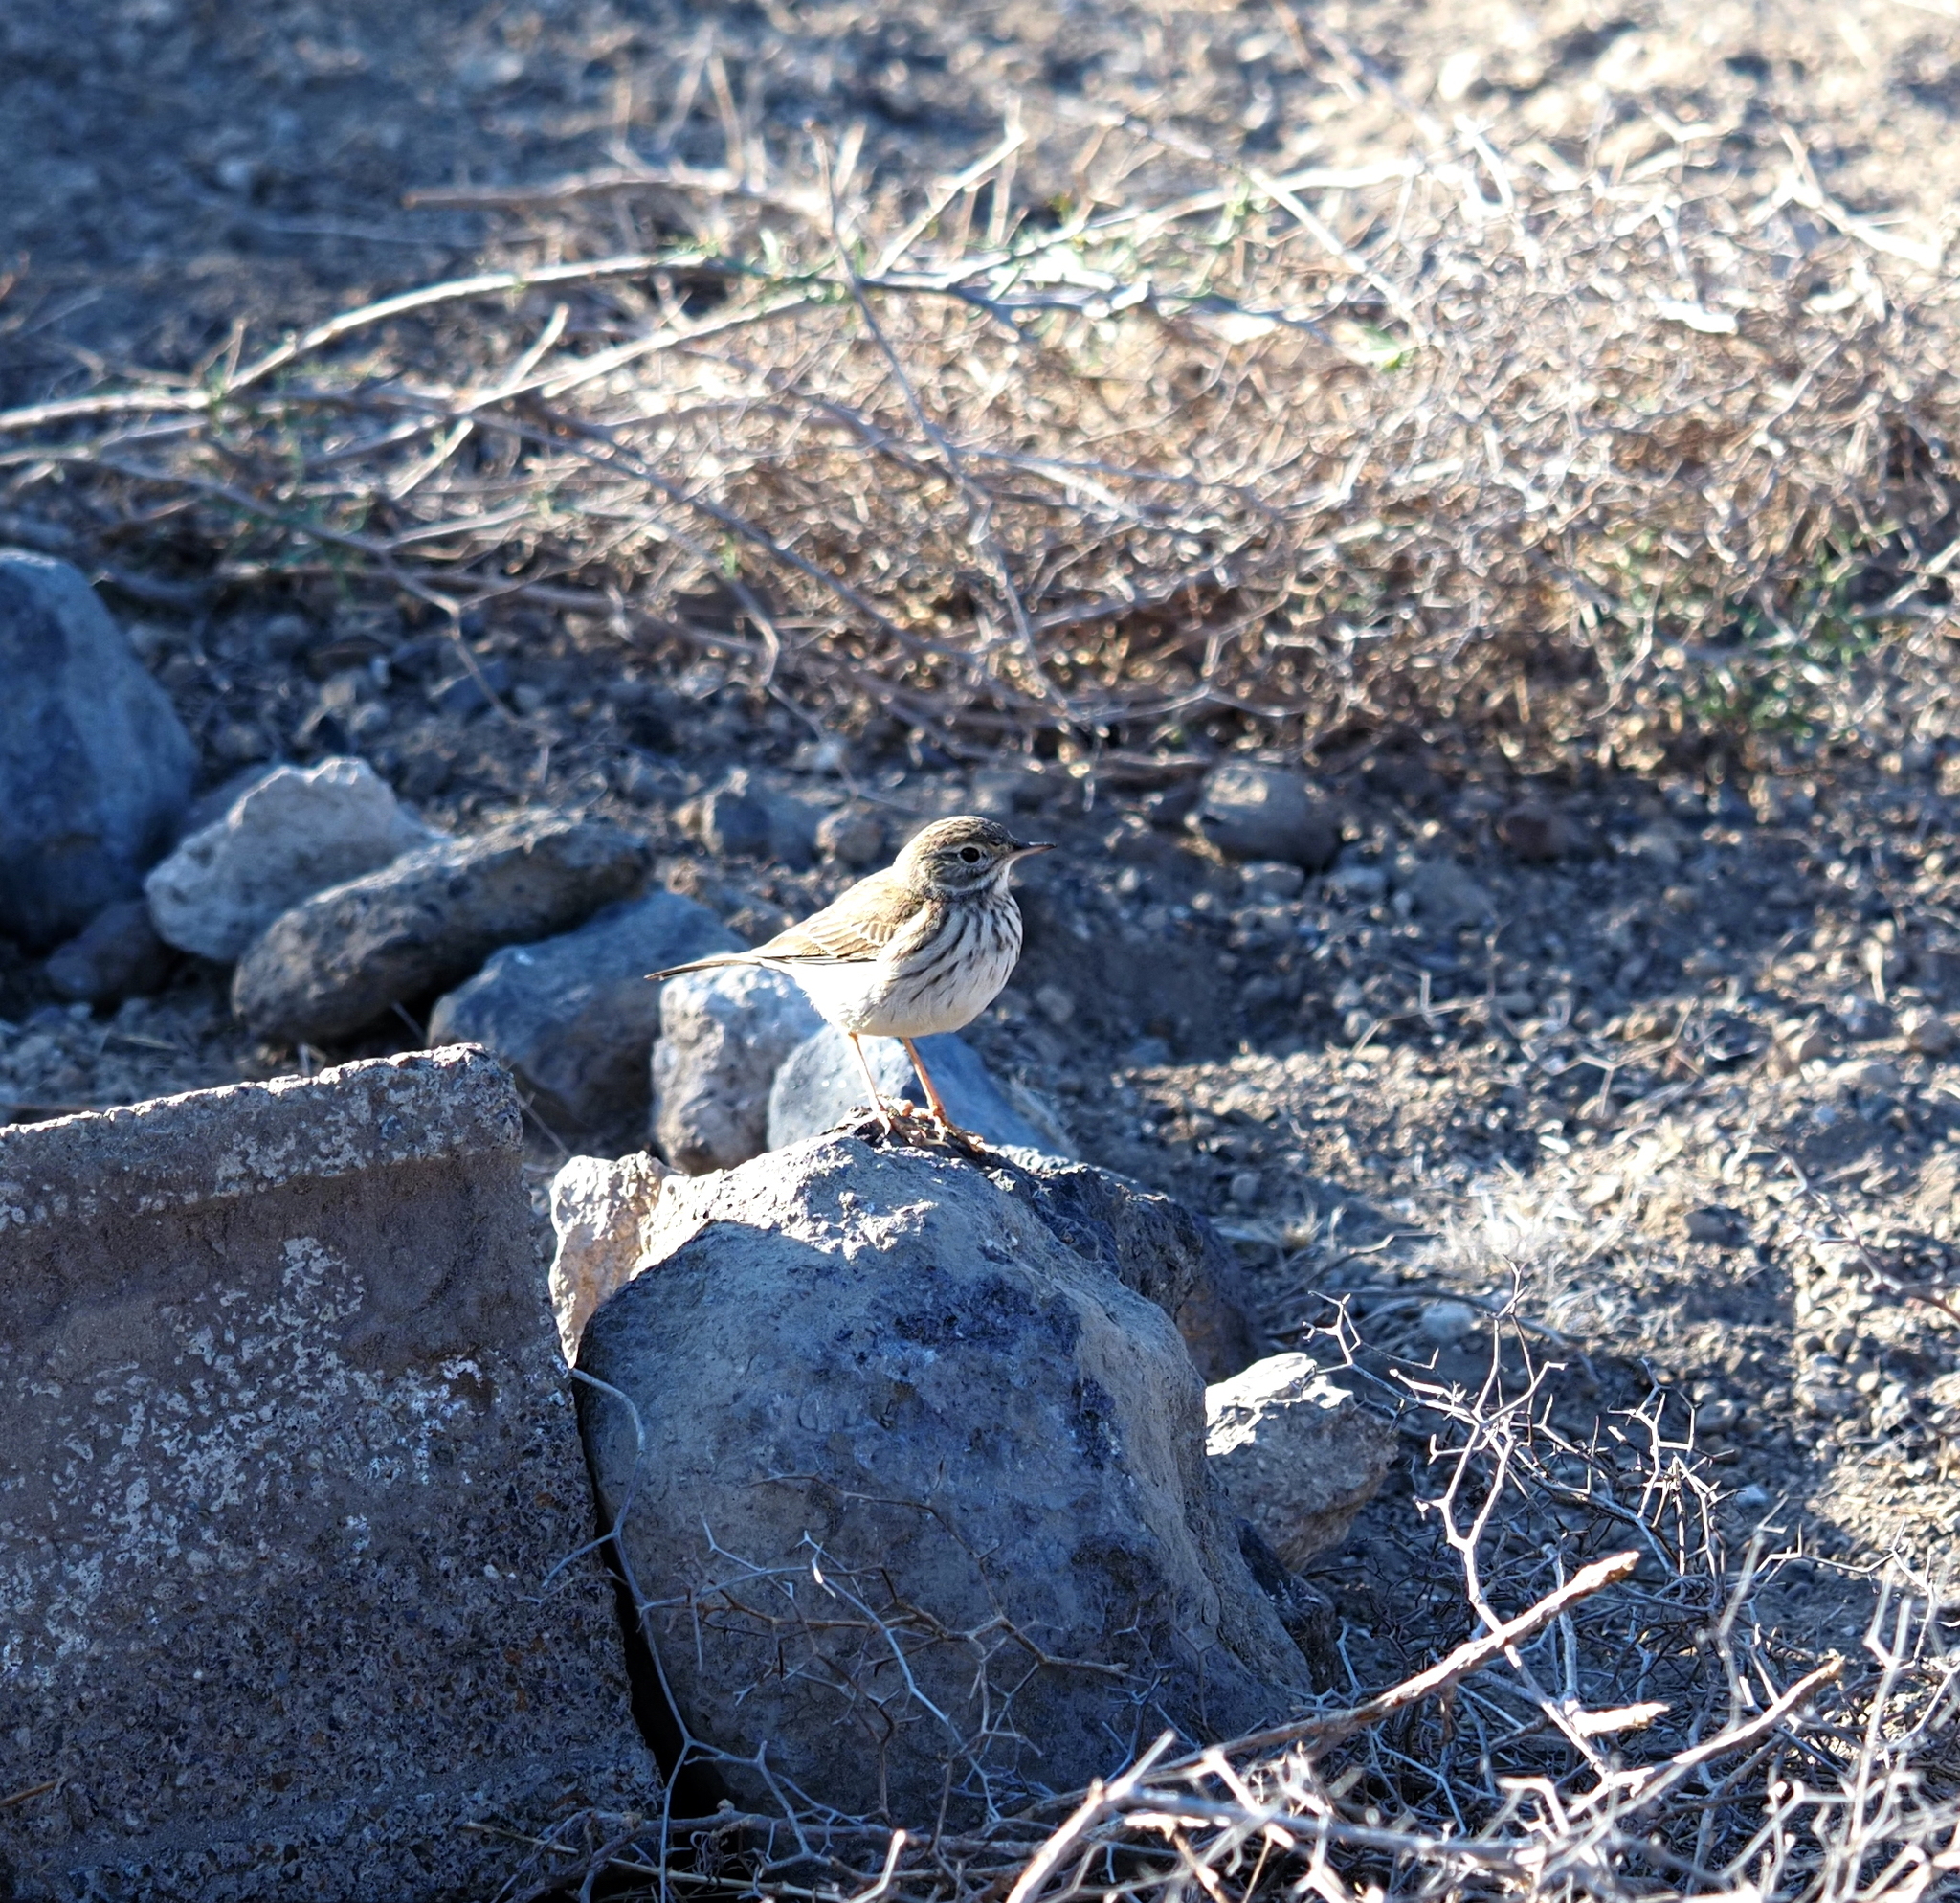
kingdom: Animalia
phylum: Chordata
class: Aves
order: Passeriformes
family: Motacillidae
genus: Anthus
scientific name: Anthus berthelotii
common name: Berthelot's pipit
